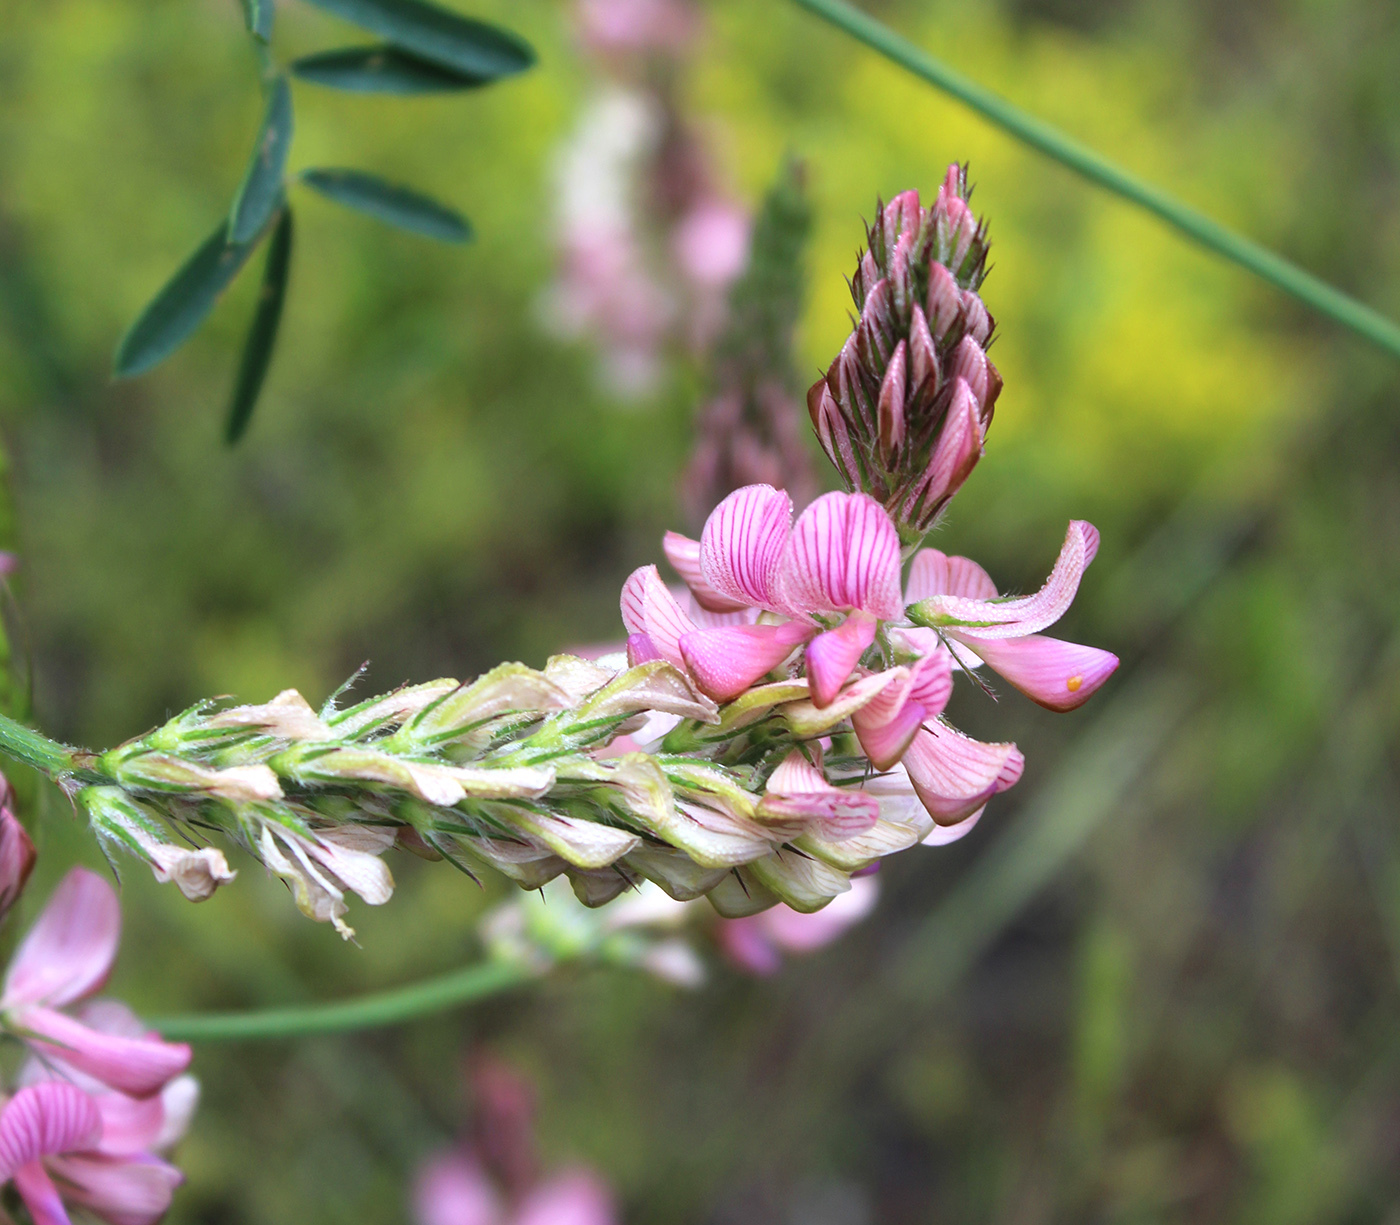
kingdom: Plantae
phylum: Tracheophyta
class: Magnoliopsida
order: Fabales
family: Fabaceae
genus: Onobrychis
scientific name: Onobrychis viciifolia
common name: Sainfoin
